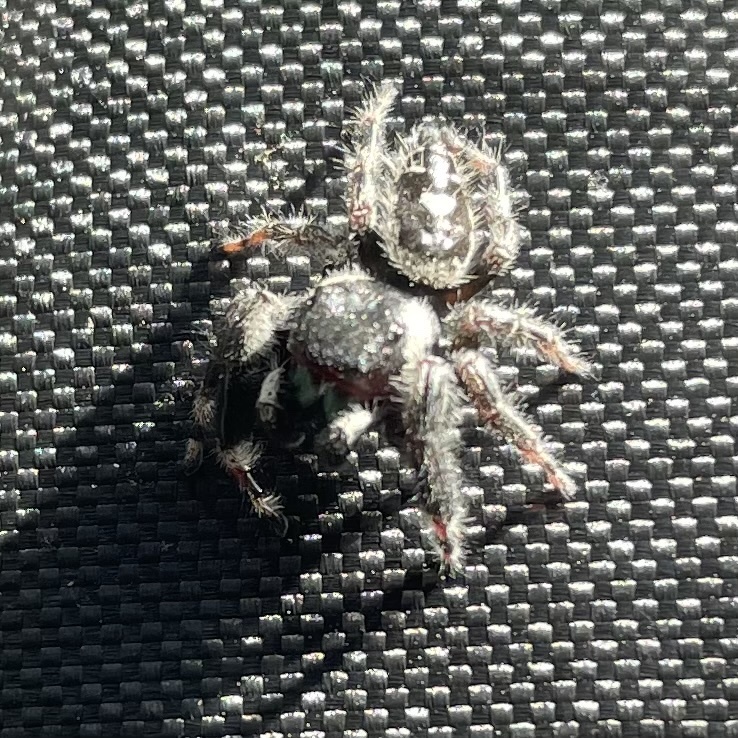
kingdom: Animalia
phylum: Arthropoda
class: Arachnida
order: Araneae
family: Salticidae
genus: Phidippus
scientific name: Phidippus audax
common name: Bold jumper
